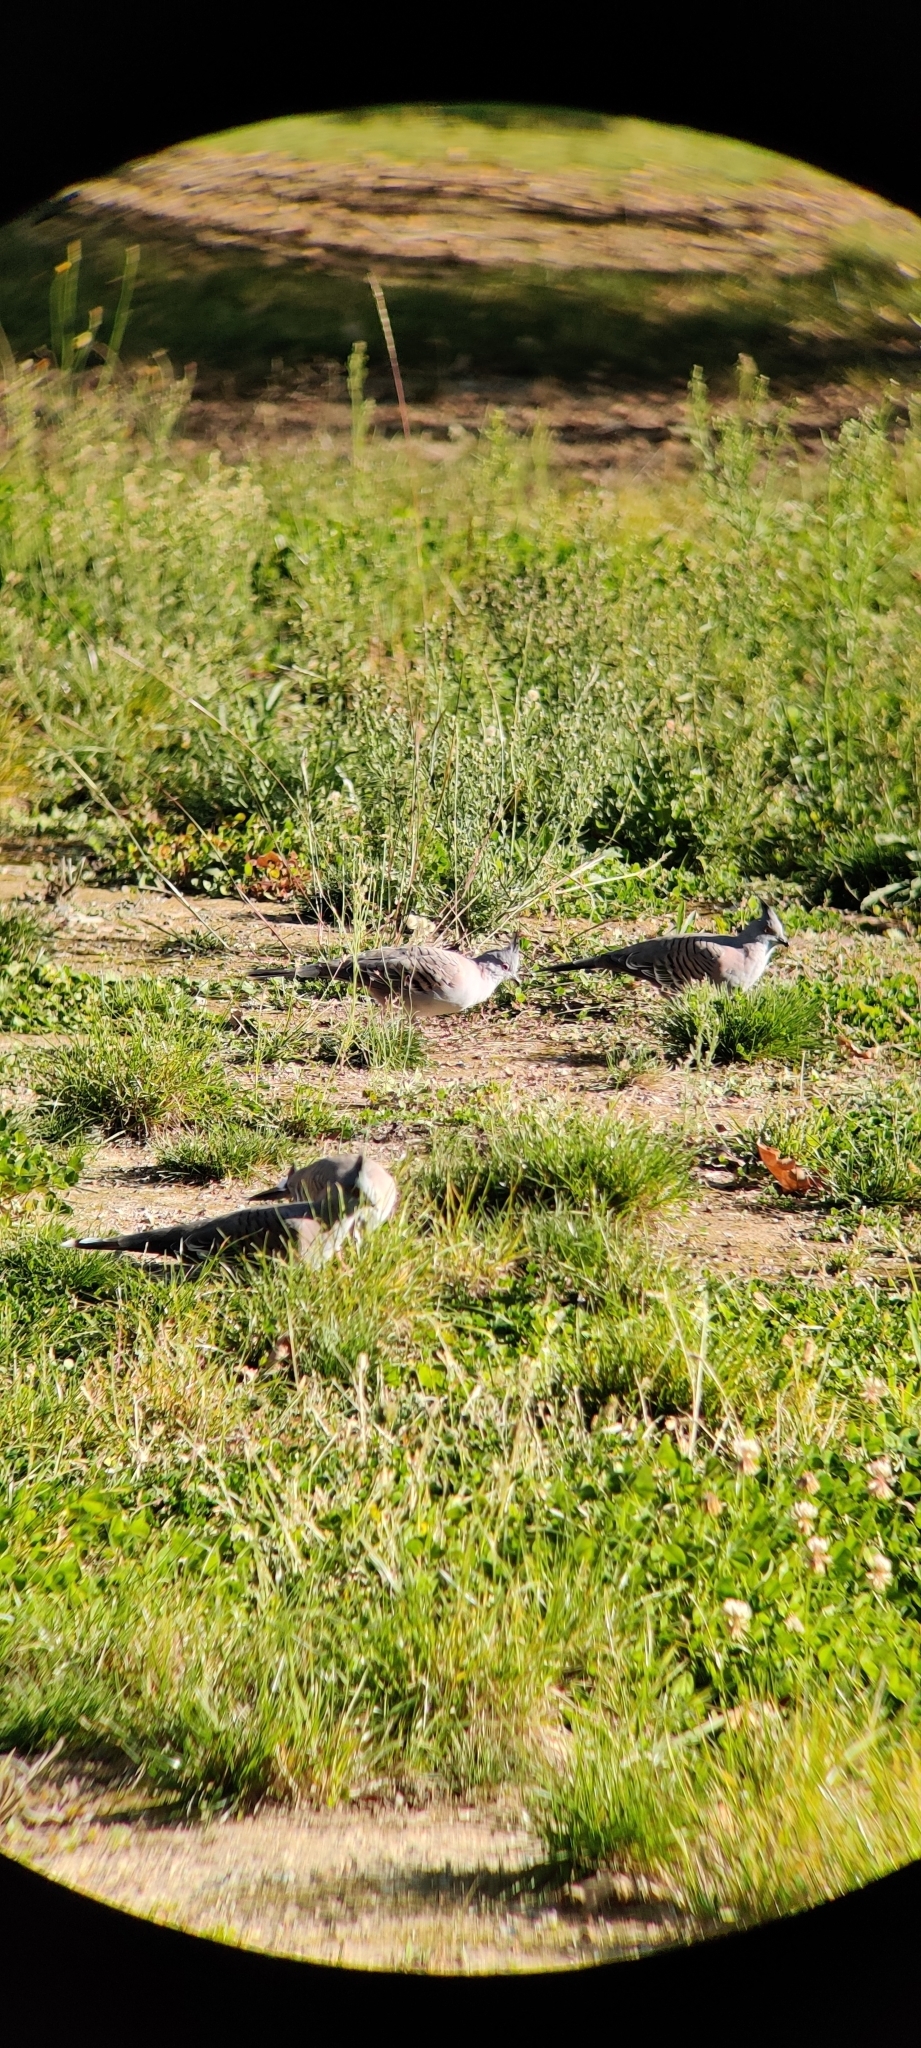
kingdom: Animalia
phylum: Chordata
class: Aves
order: Columbiformes
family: Columbidae
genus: Ocyphaps
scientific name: Ocyphaps lophotes
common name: Crested pigeon
